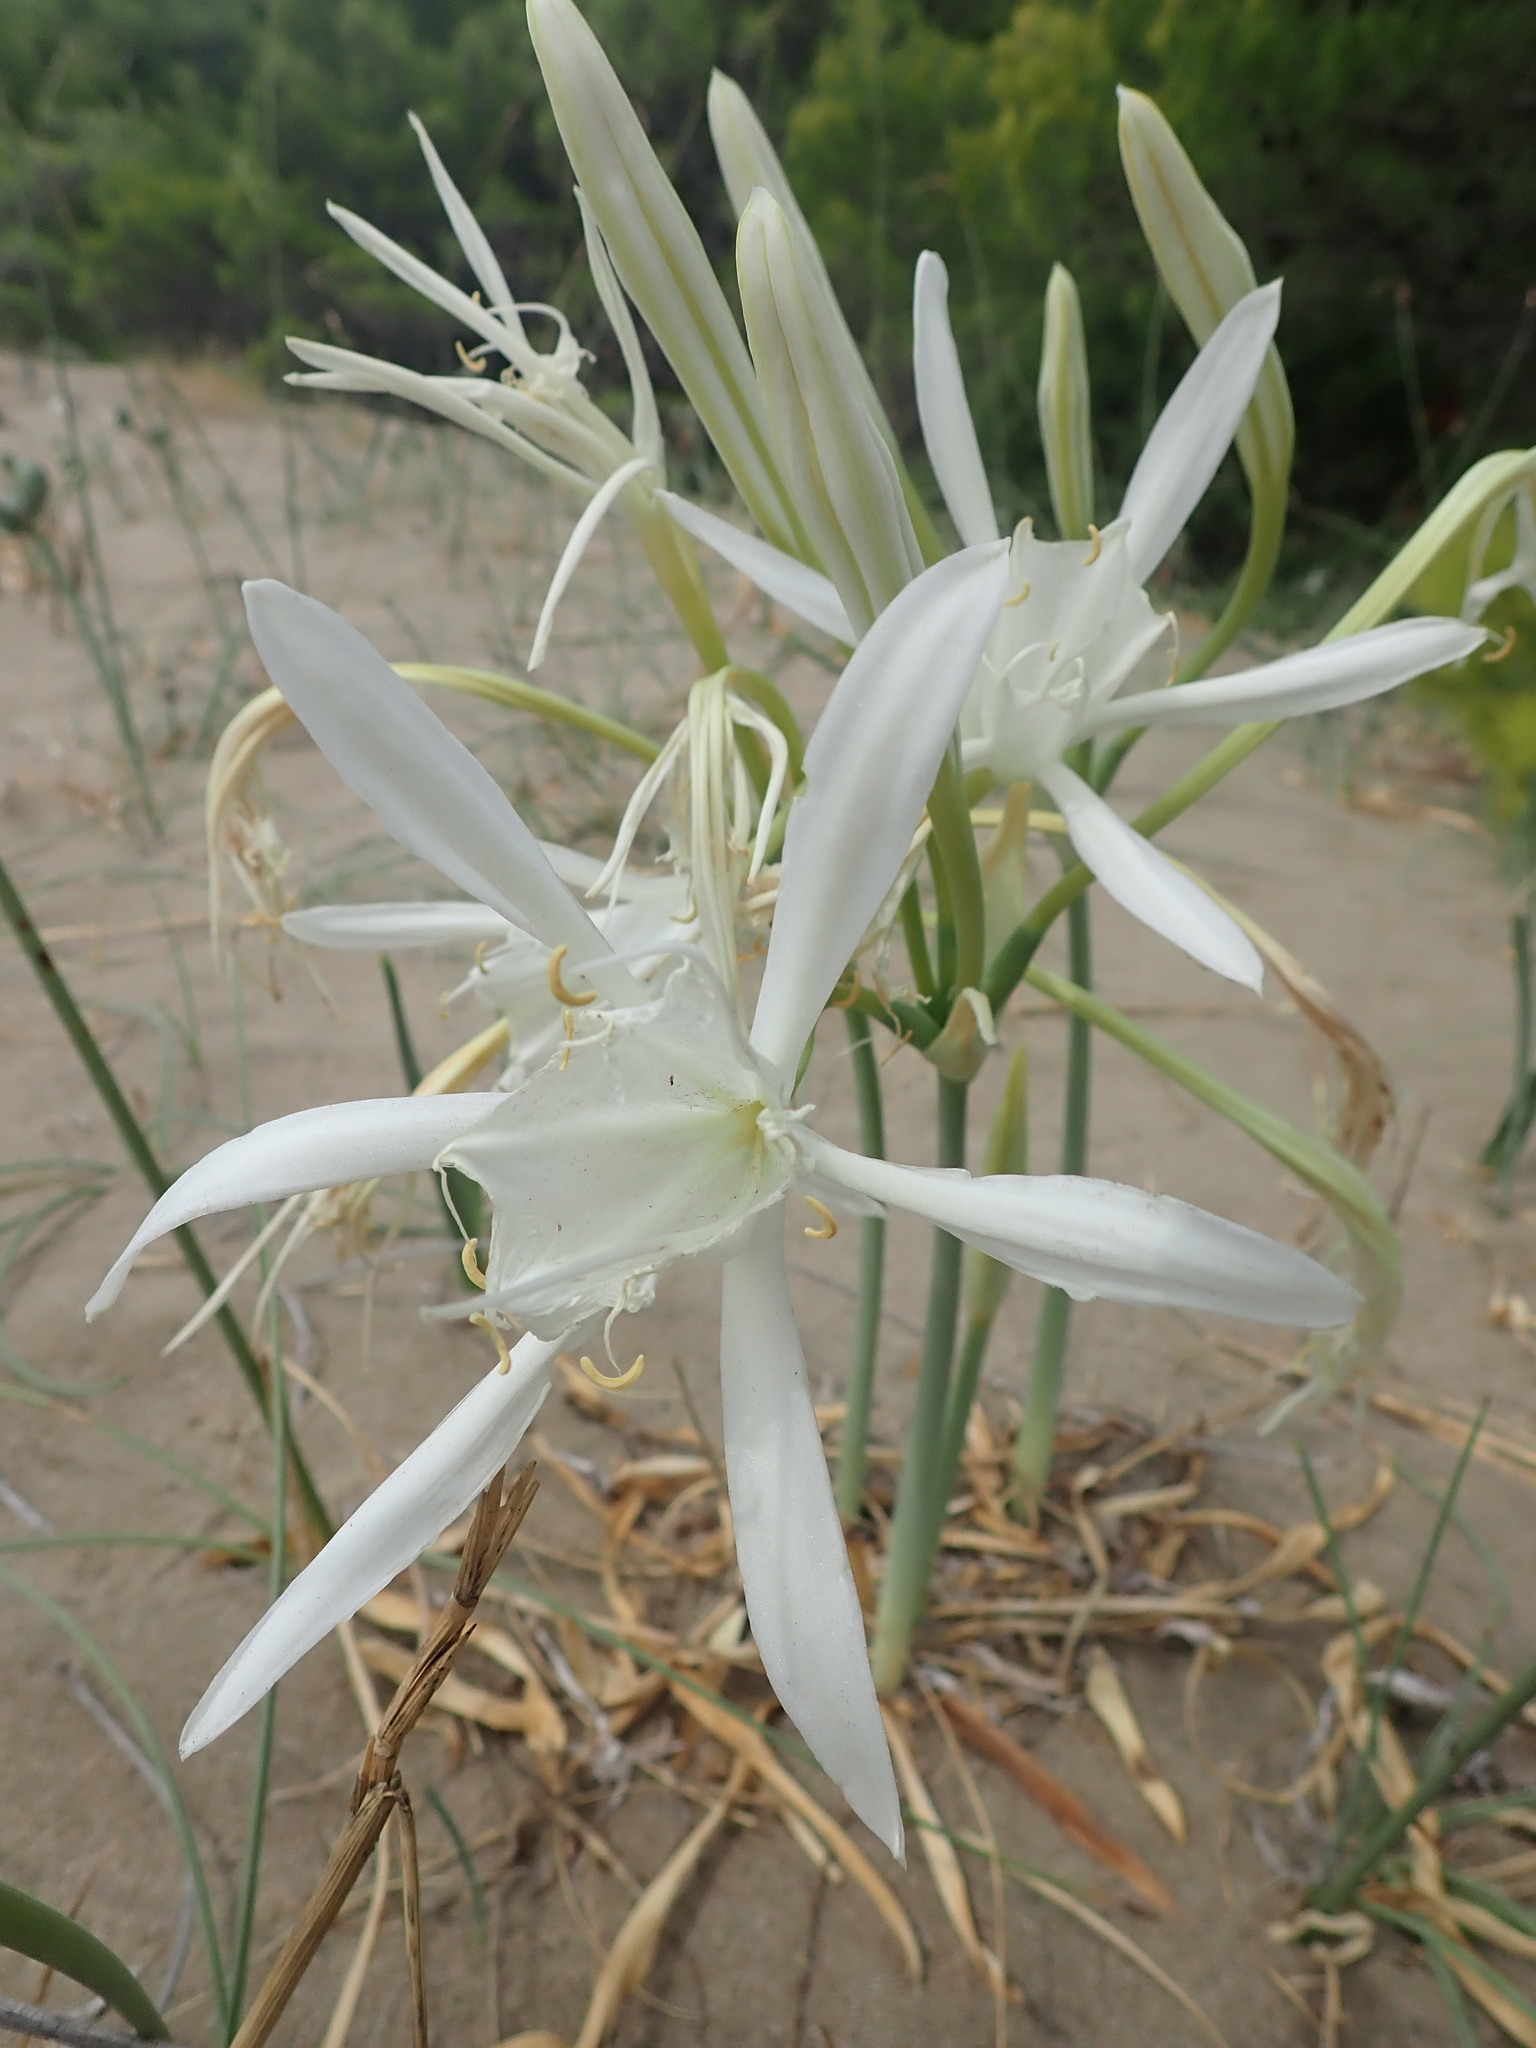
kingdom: Plantae
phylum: Tracheophyta
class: Liliopsida
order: Asparagales
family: Amaryllidaceae
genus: Pancratium
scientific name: Pancratium maritimum
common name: Sea-daffodil
